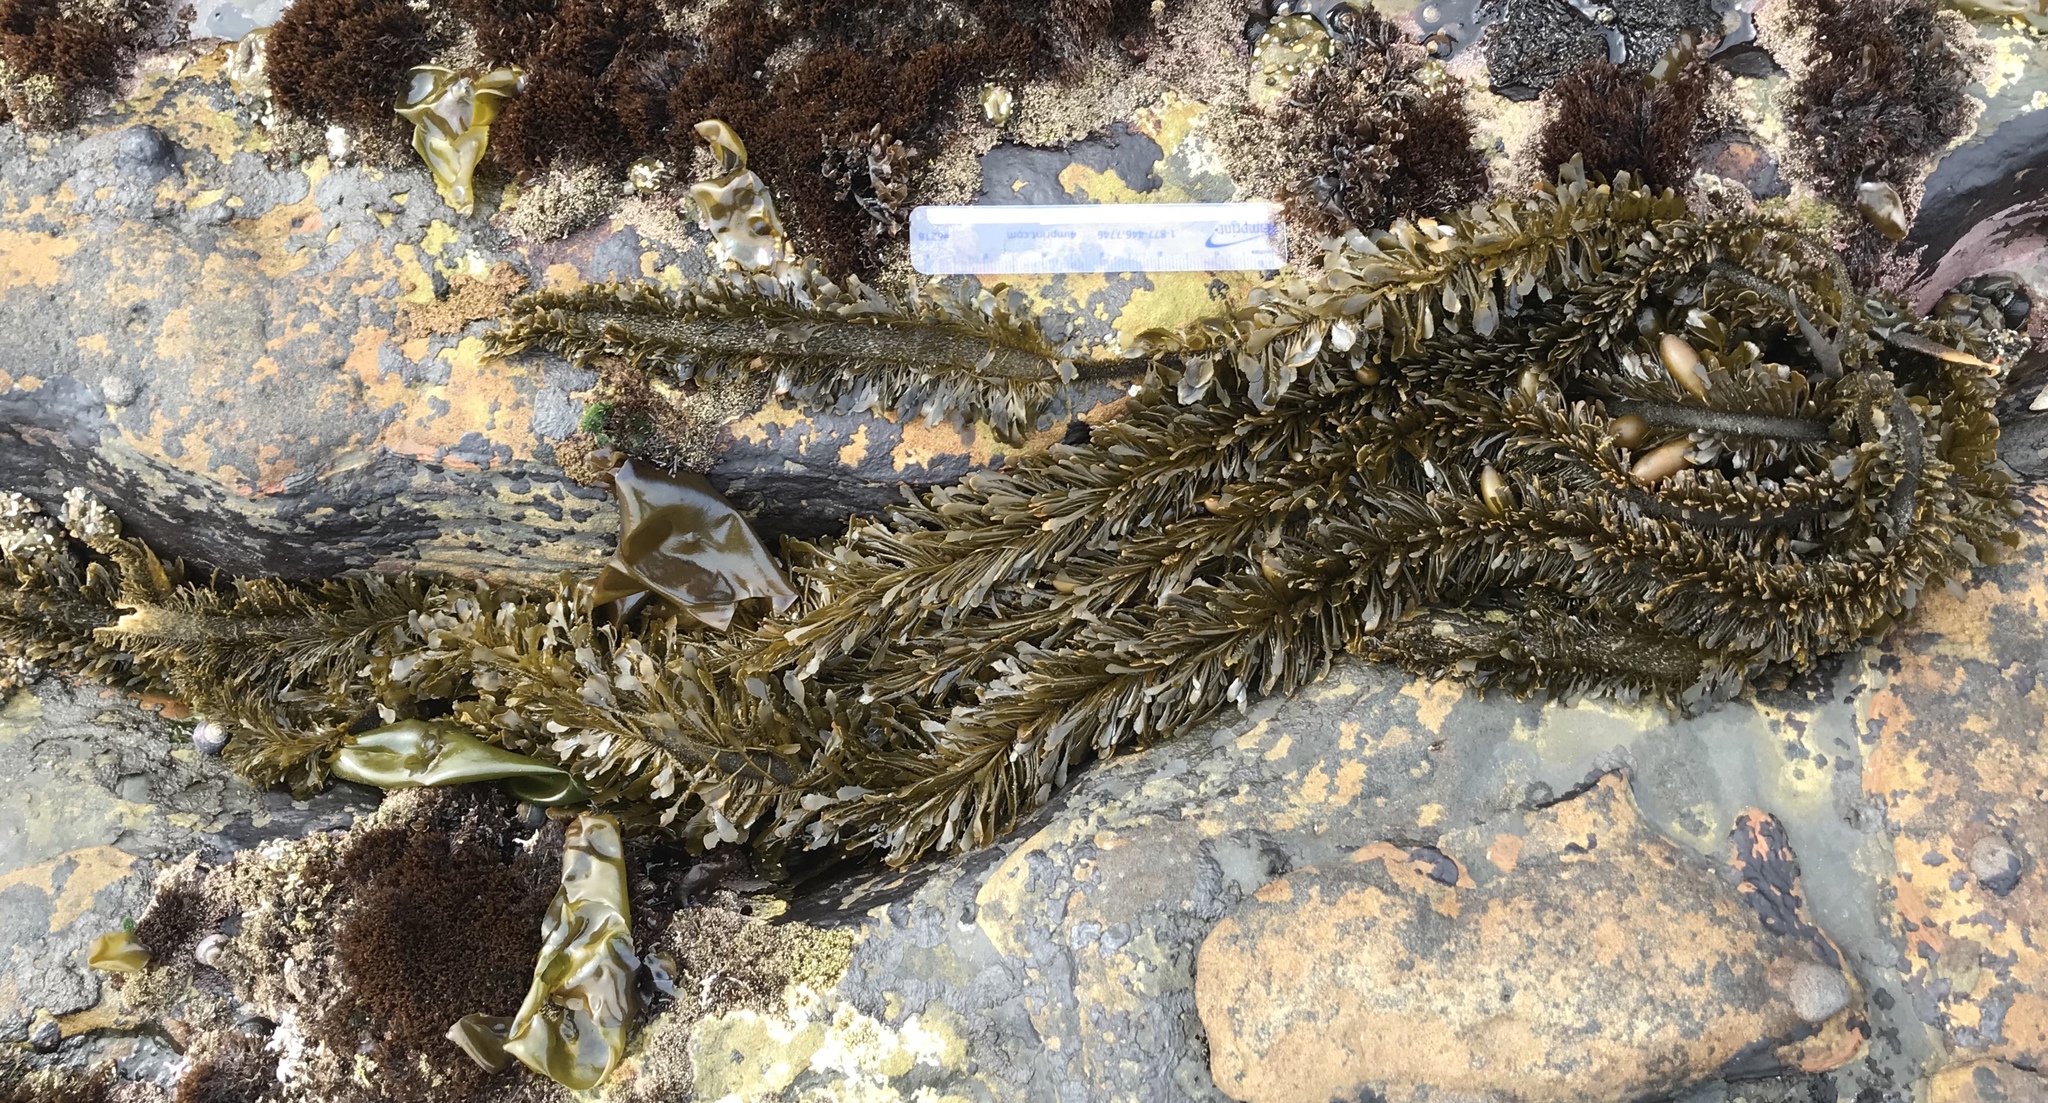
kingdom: Chromista
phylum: Ochrophyta
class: Phaeophyceae
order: Laminariales
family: Lessoniaceae
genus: Egregia
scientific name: Egregia menziesii
